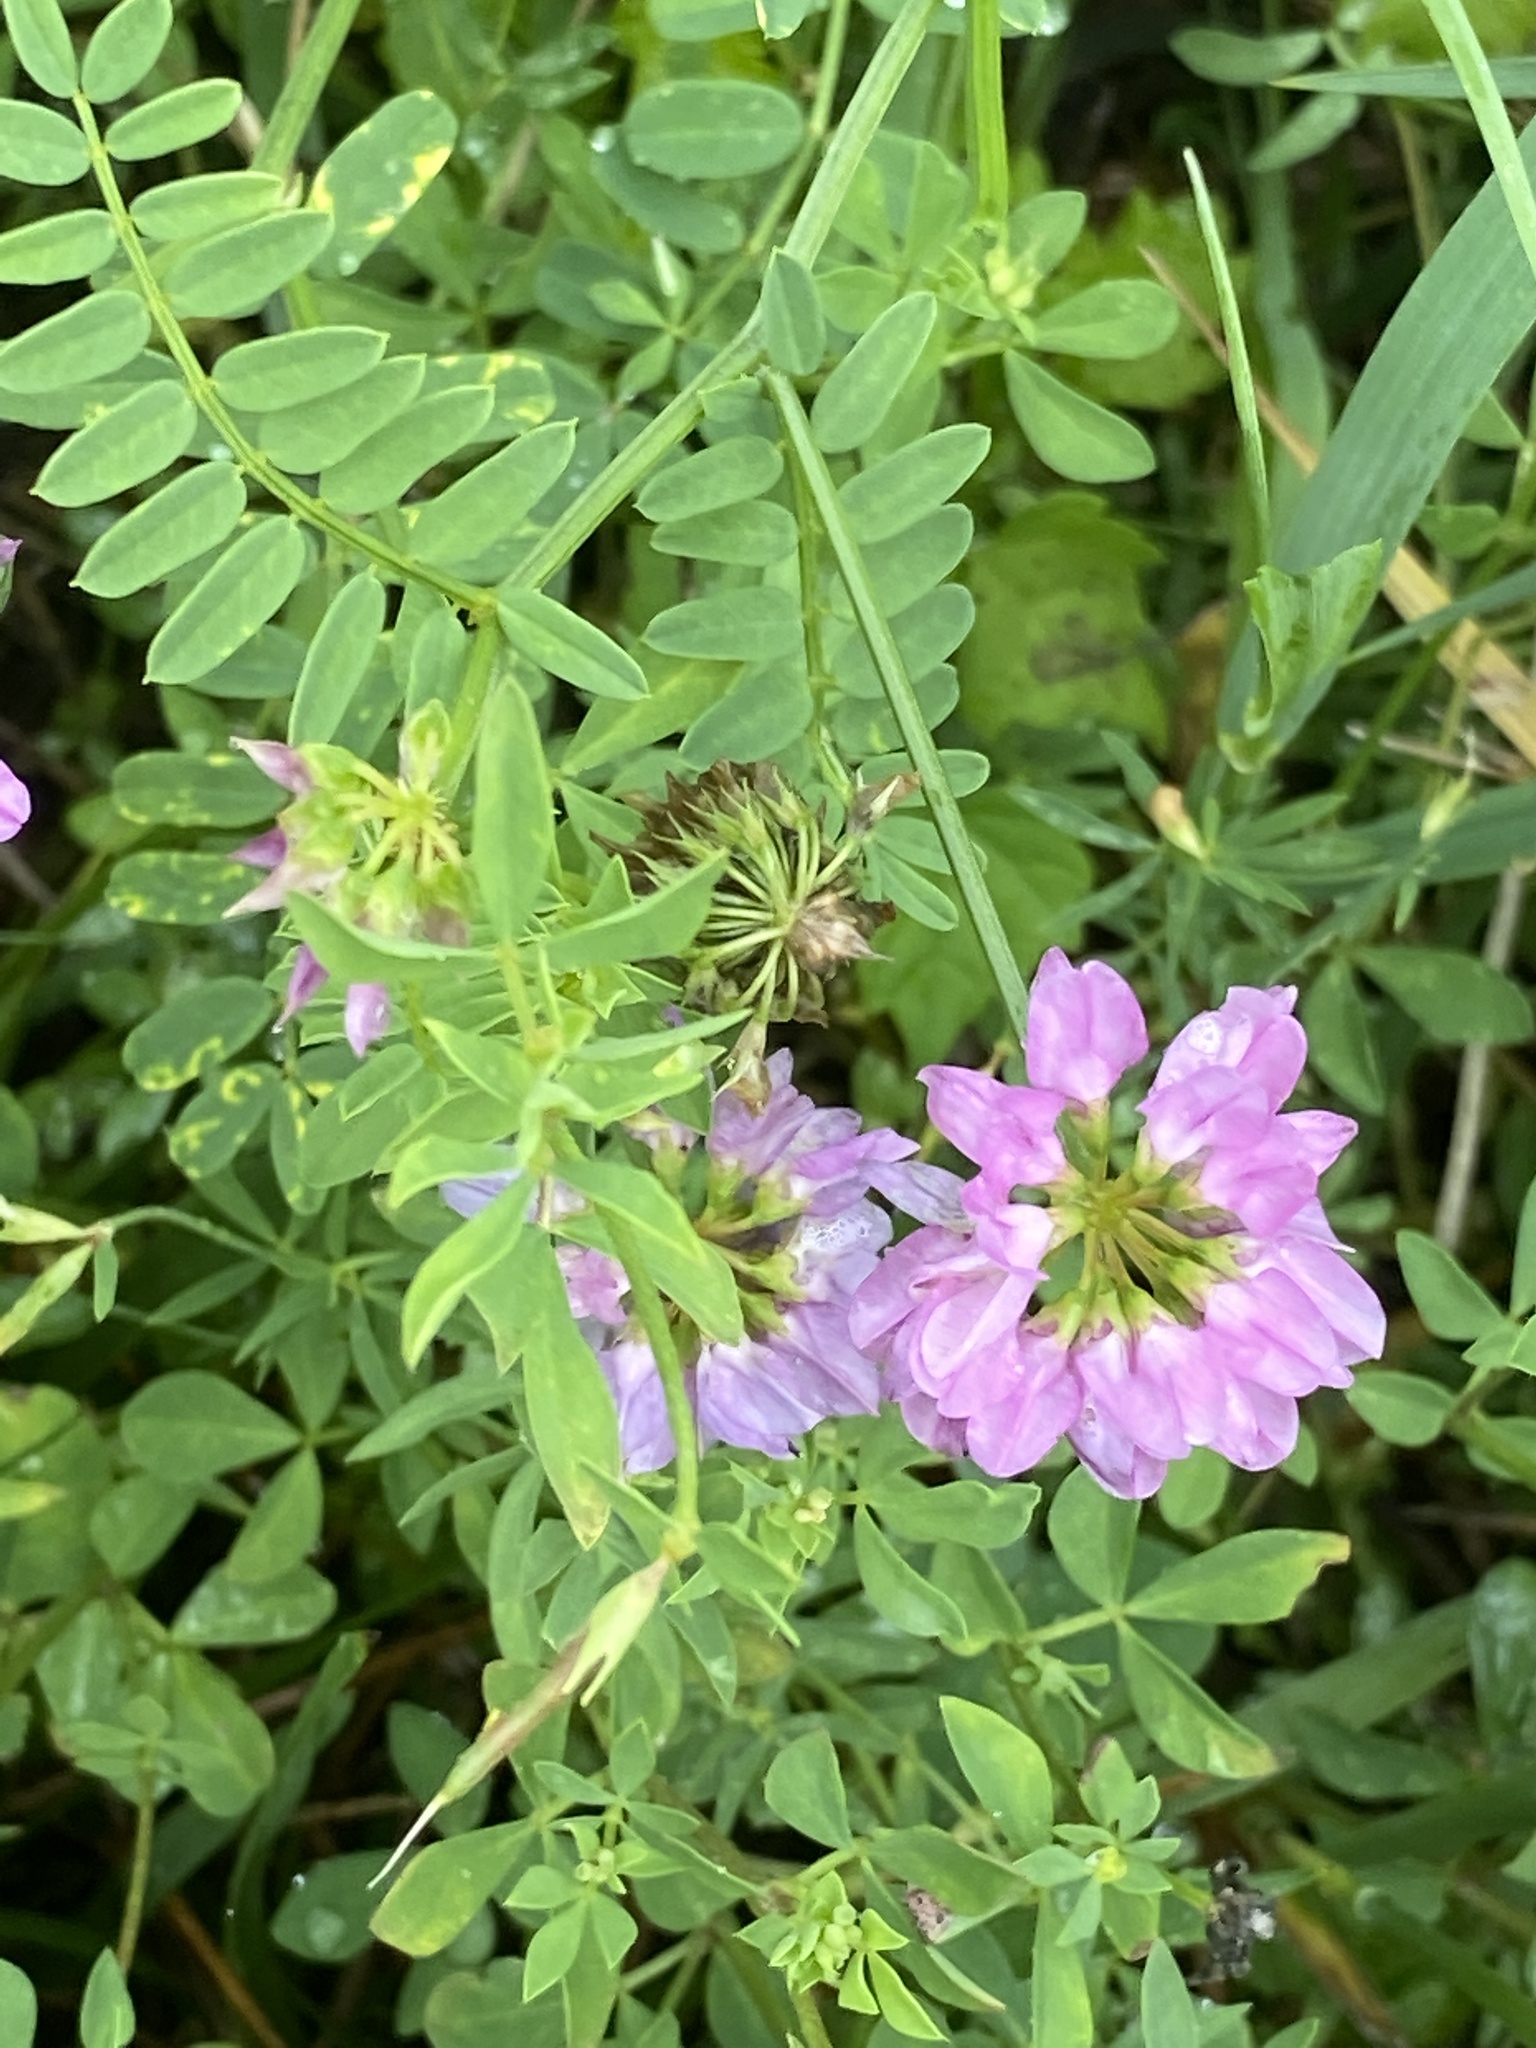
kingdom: Plantae
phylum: Tracheophyta
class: Magnoliopsida
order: Fabales
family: Fabaceae
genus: Coronilla
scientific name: Coronilla varia
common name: Crownvetch
